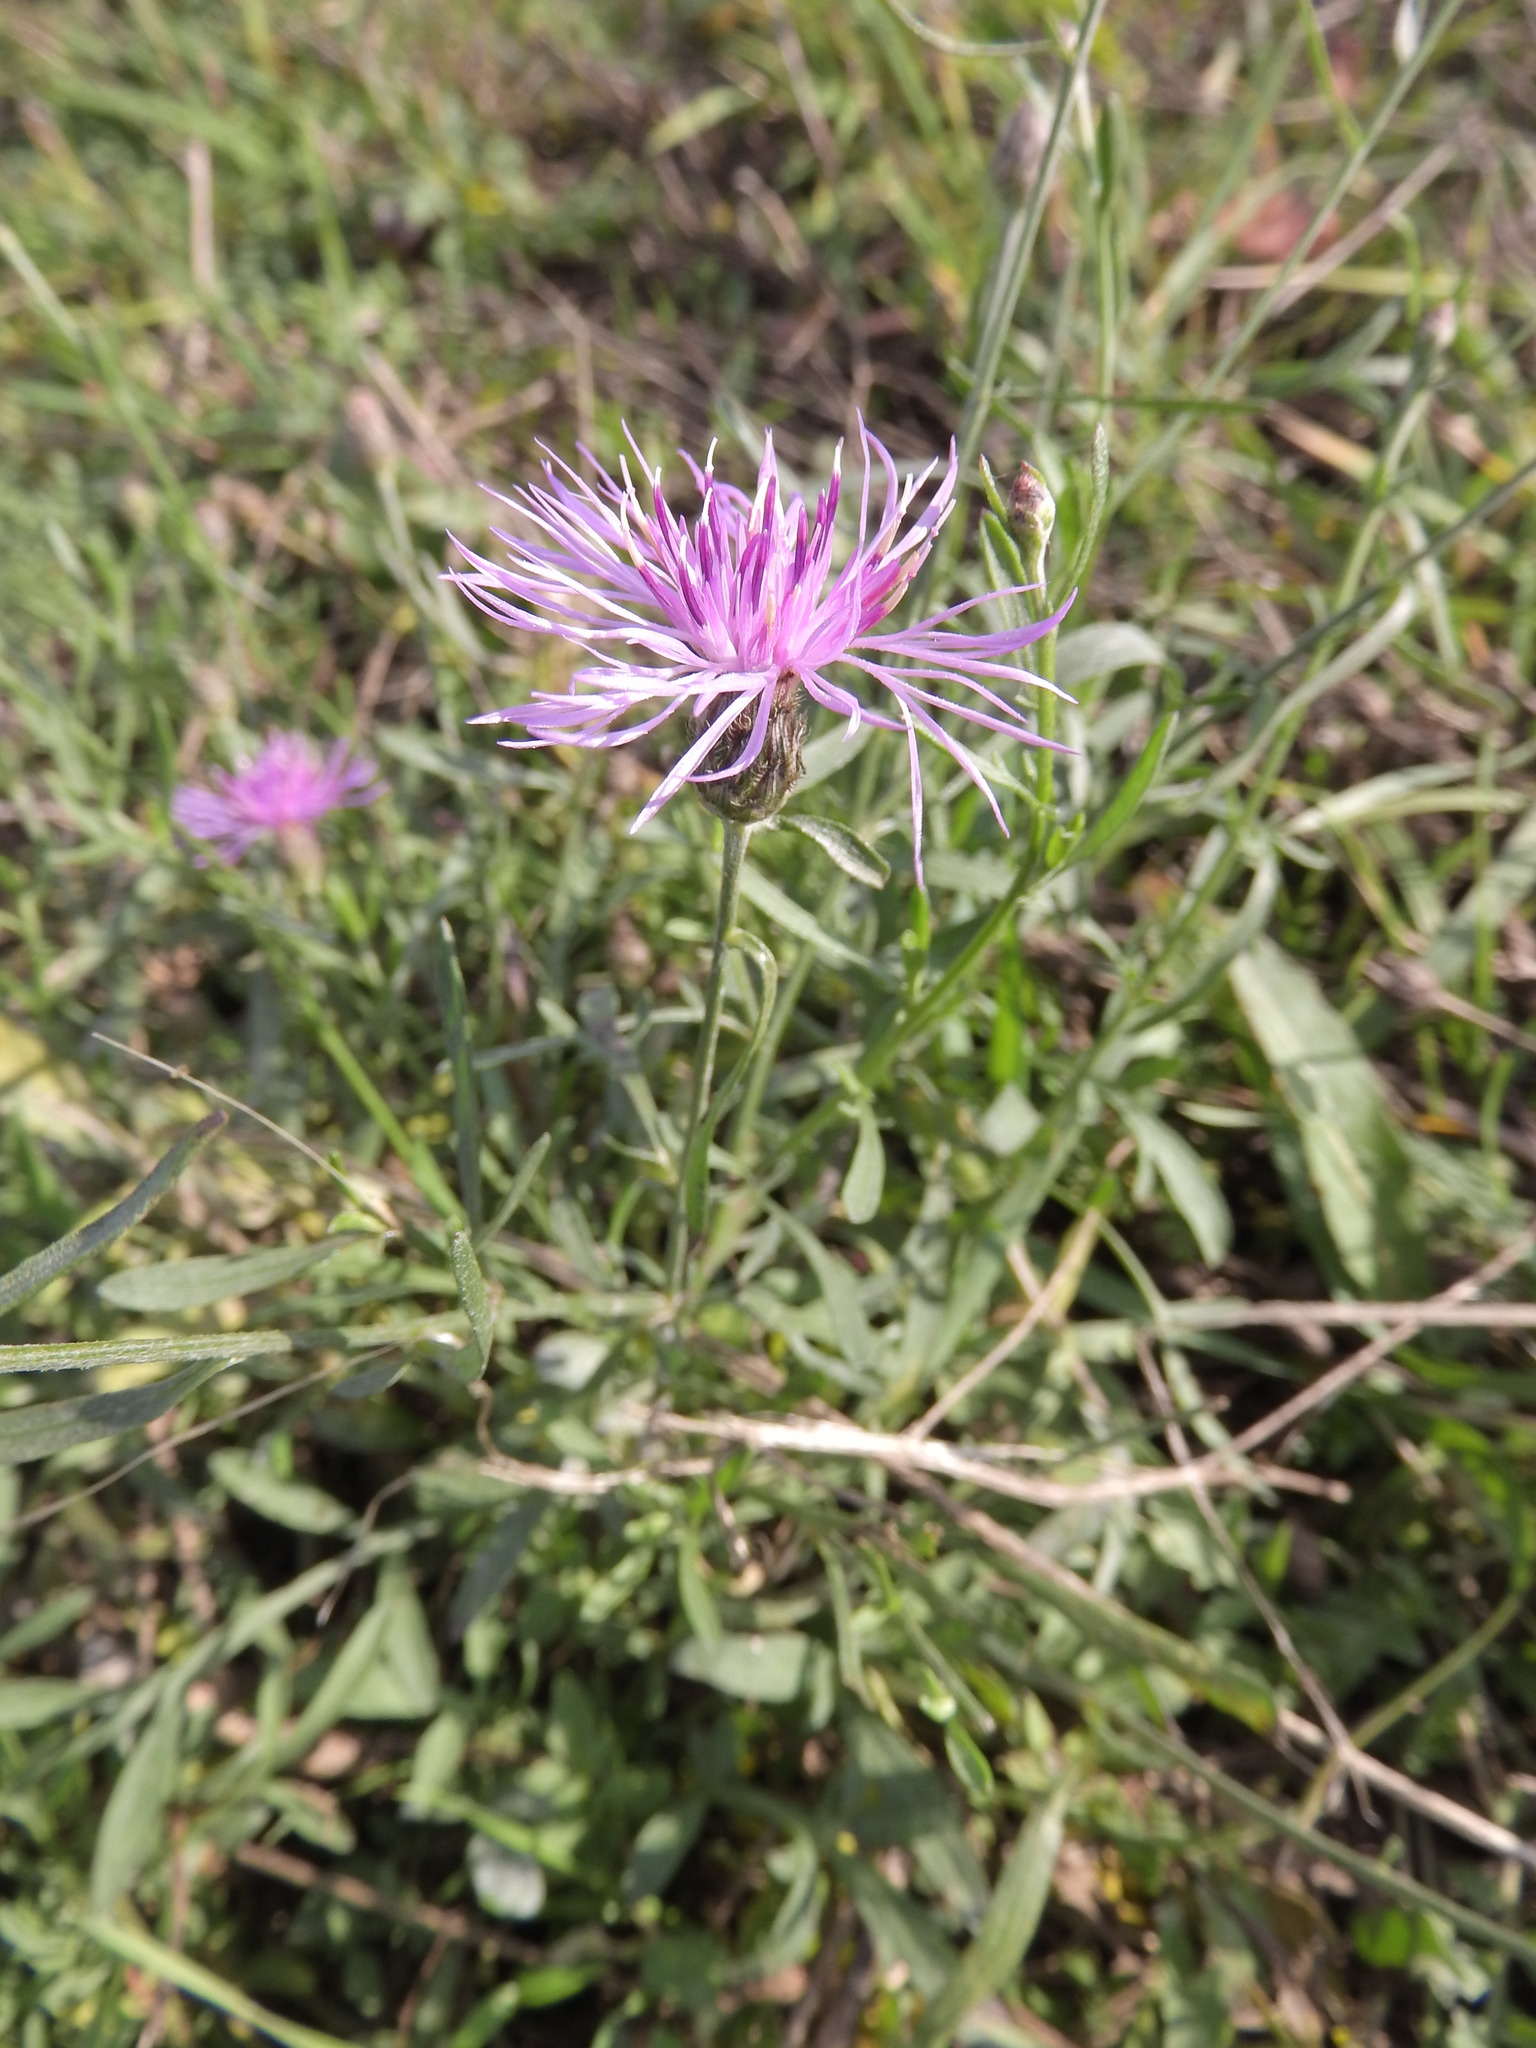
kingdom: Plantae
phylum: Tracheophyta
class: Magnoliopsida
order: Asterales
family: Asteraceae
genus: Centaurea
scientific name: Centaurea stoebe
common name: Spotted knapweed
